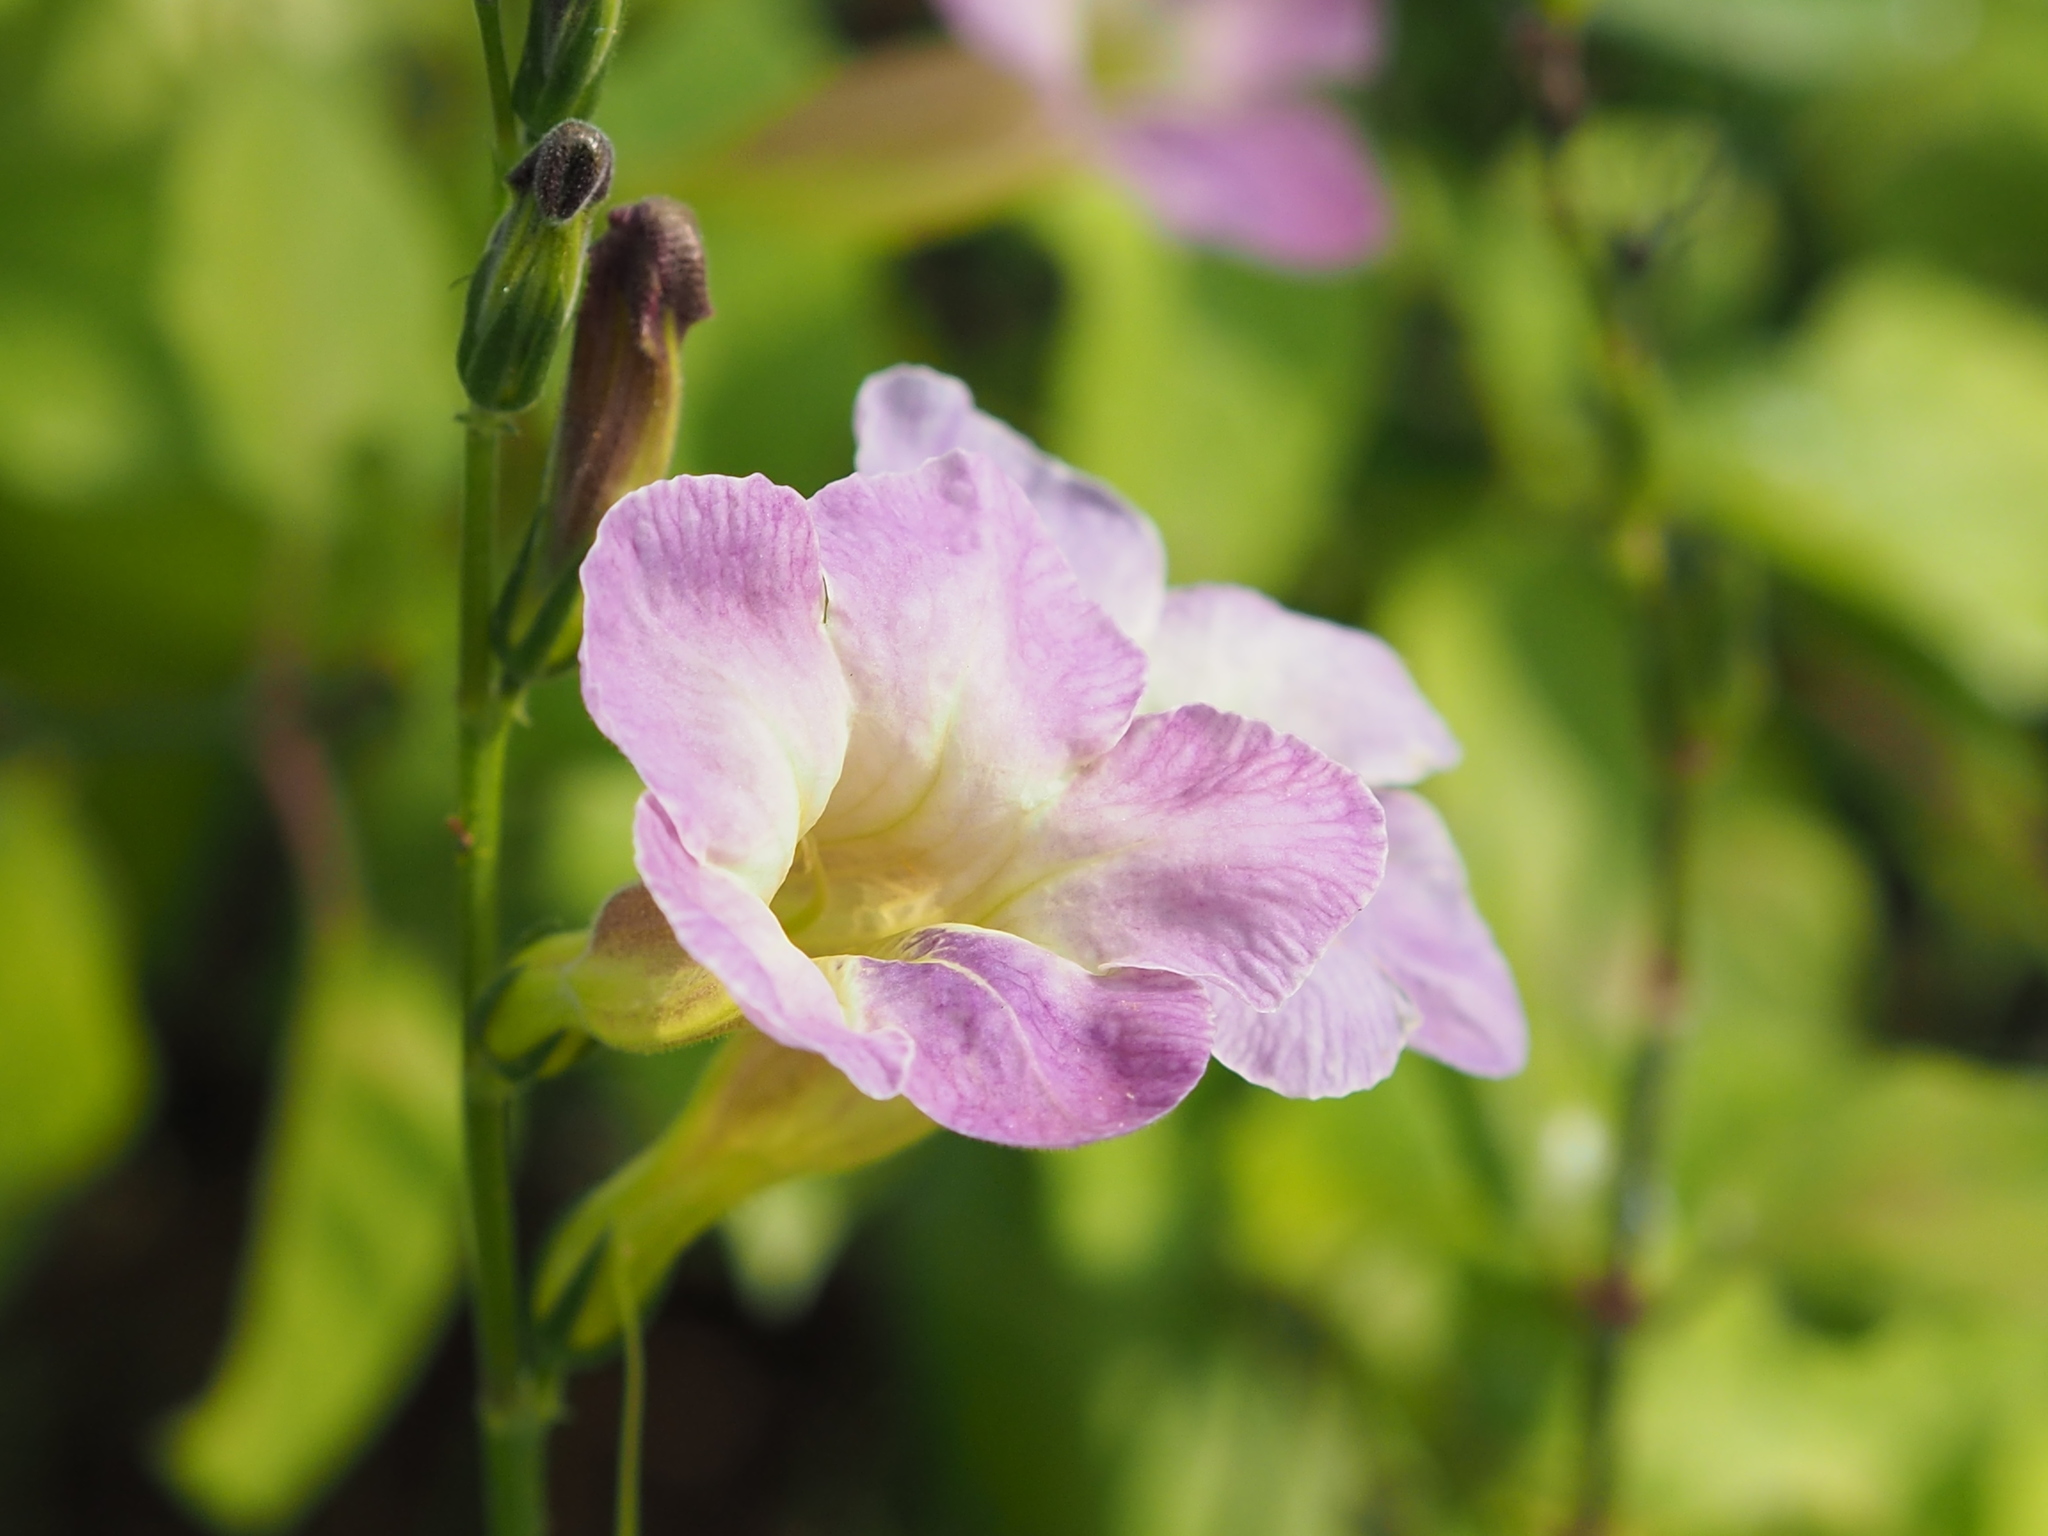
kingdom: Plantae
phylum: Tracheophyta
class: Magnoliopsida
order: Lamiales
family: Acanthaceae
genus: Asystasia
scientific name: Asystasia gangetica
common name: Chinese violet
